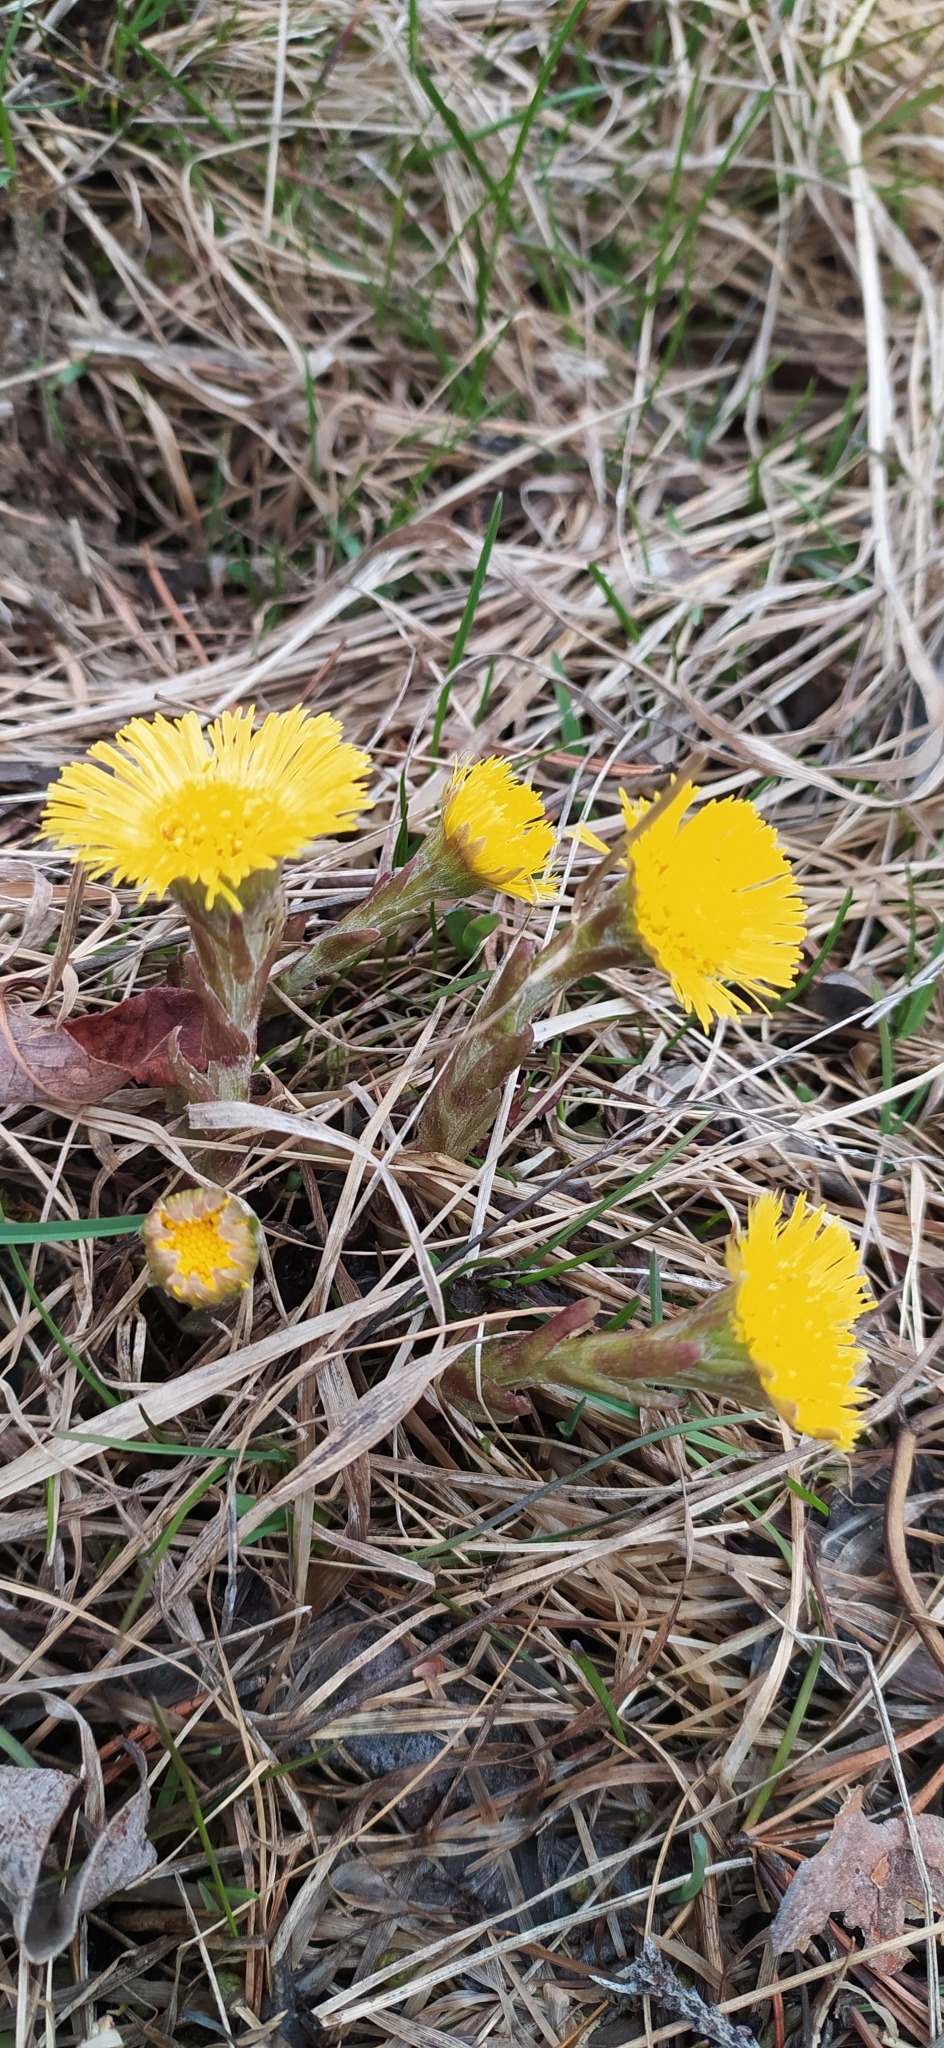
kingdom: Plantae
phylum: Tracheophyta
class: Magnoliopsida
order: Asterales
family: Asteraceae
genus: Tussilago
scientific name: Tussilago farfara
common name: Coltsfoot
